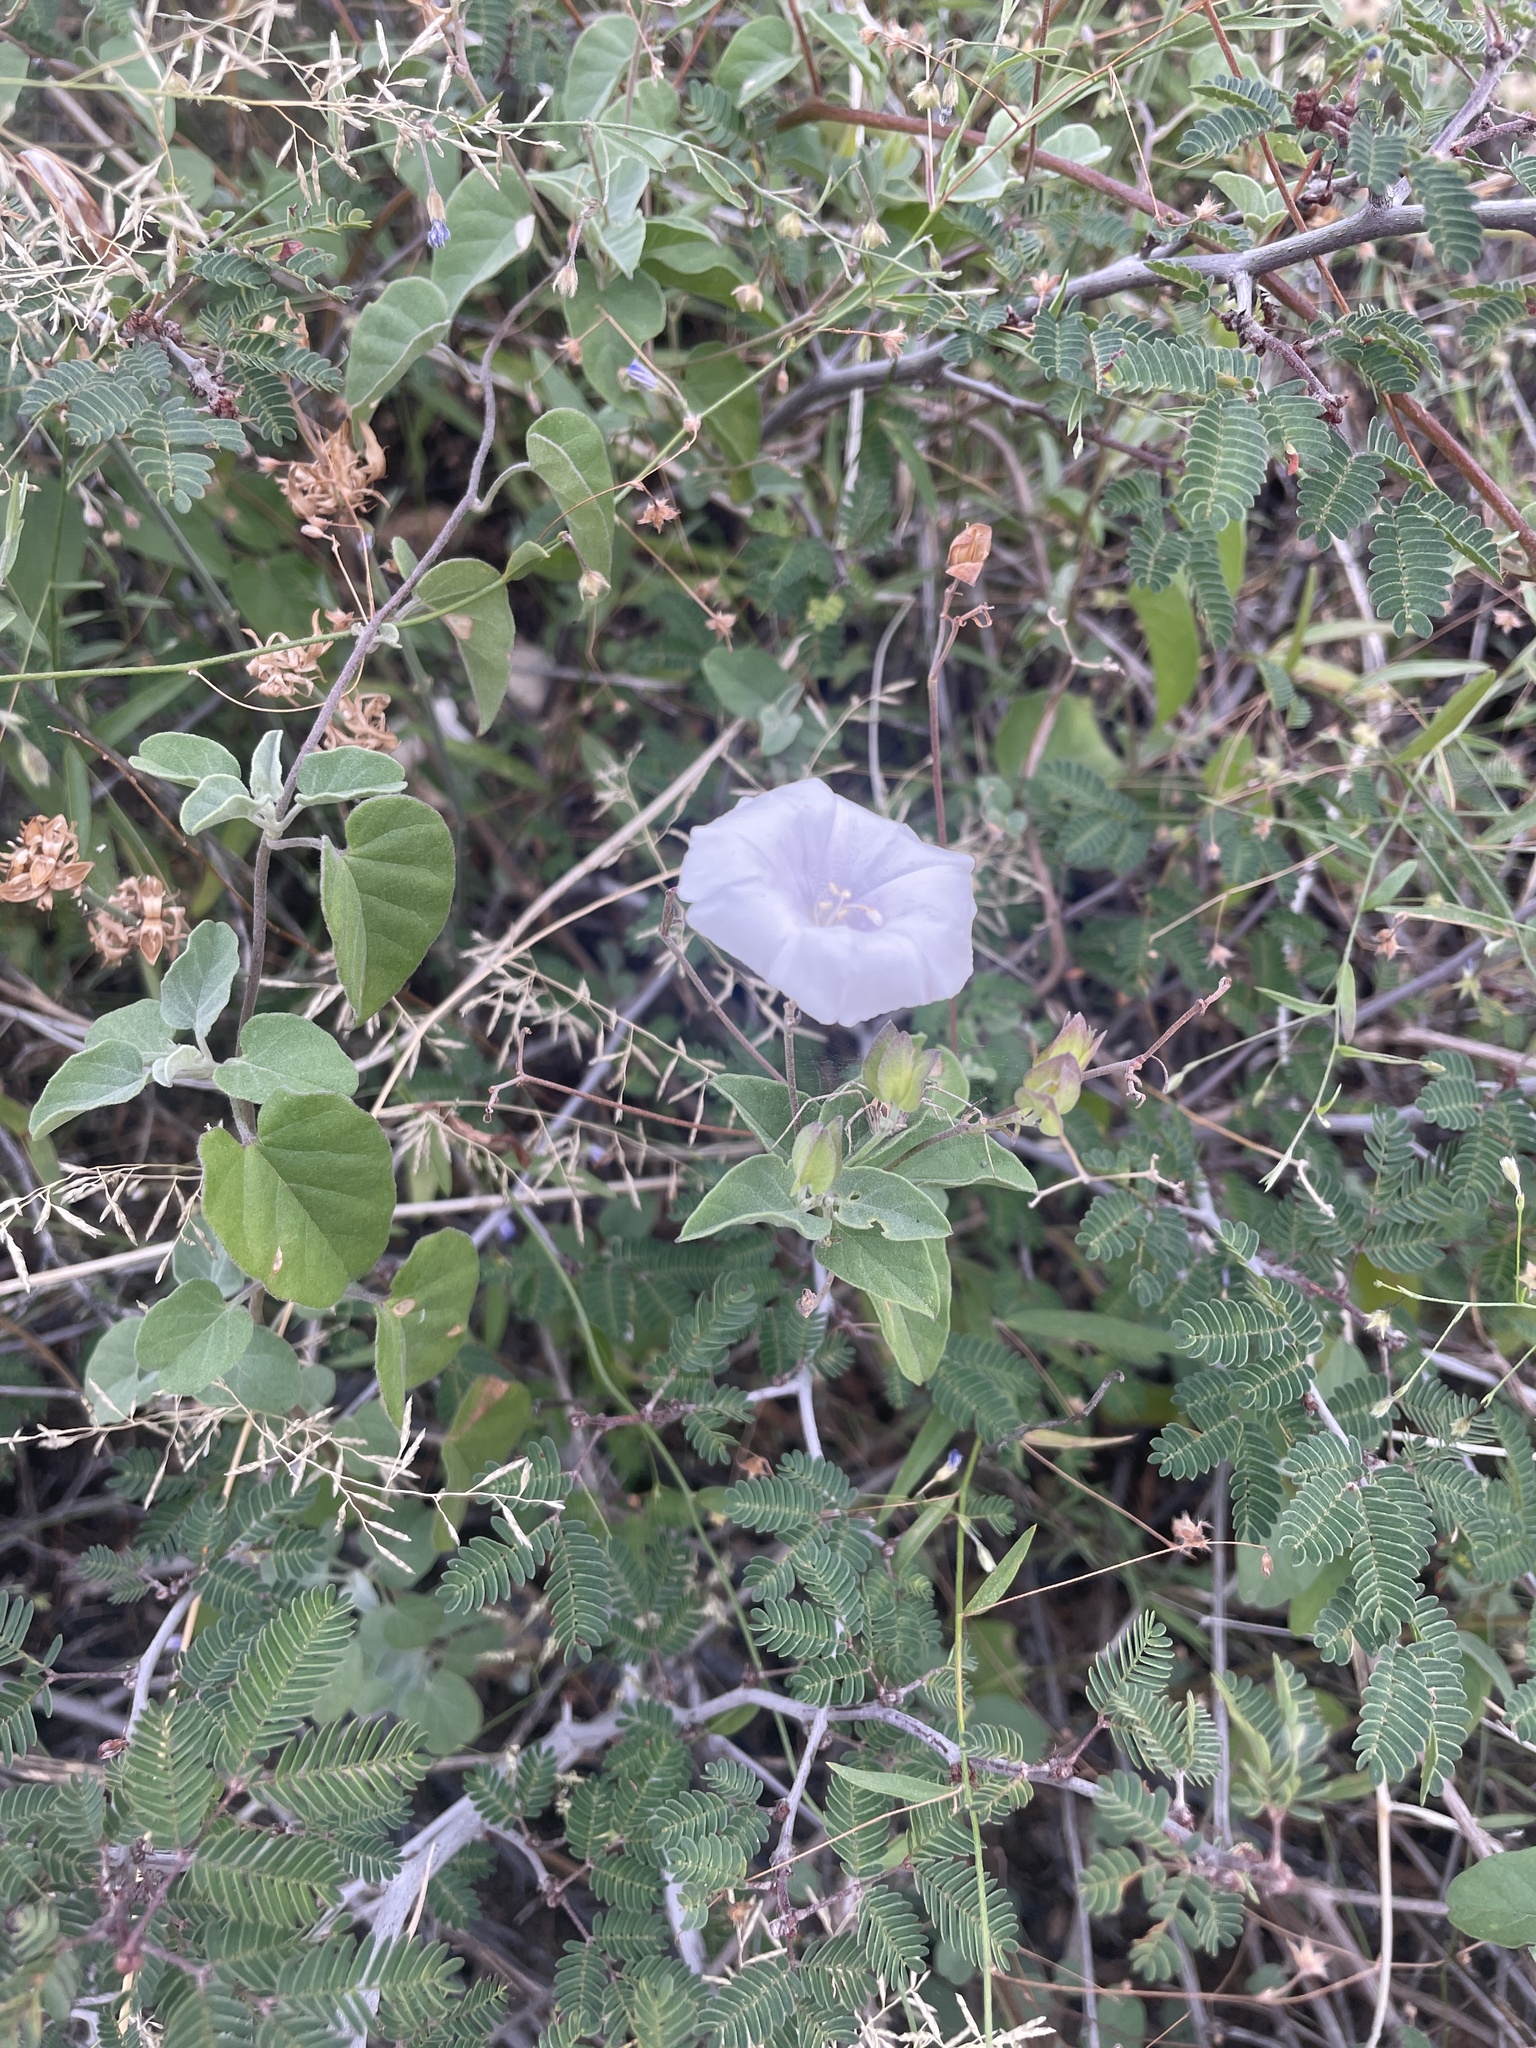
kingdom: Plantae
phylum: Tracheophyta
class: Magnoliopsida
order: Solanales
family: Convolvulaceae
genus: Jacquemontia
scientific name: Jacquemontia pringlei
